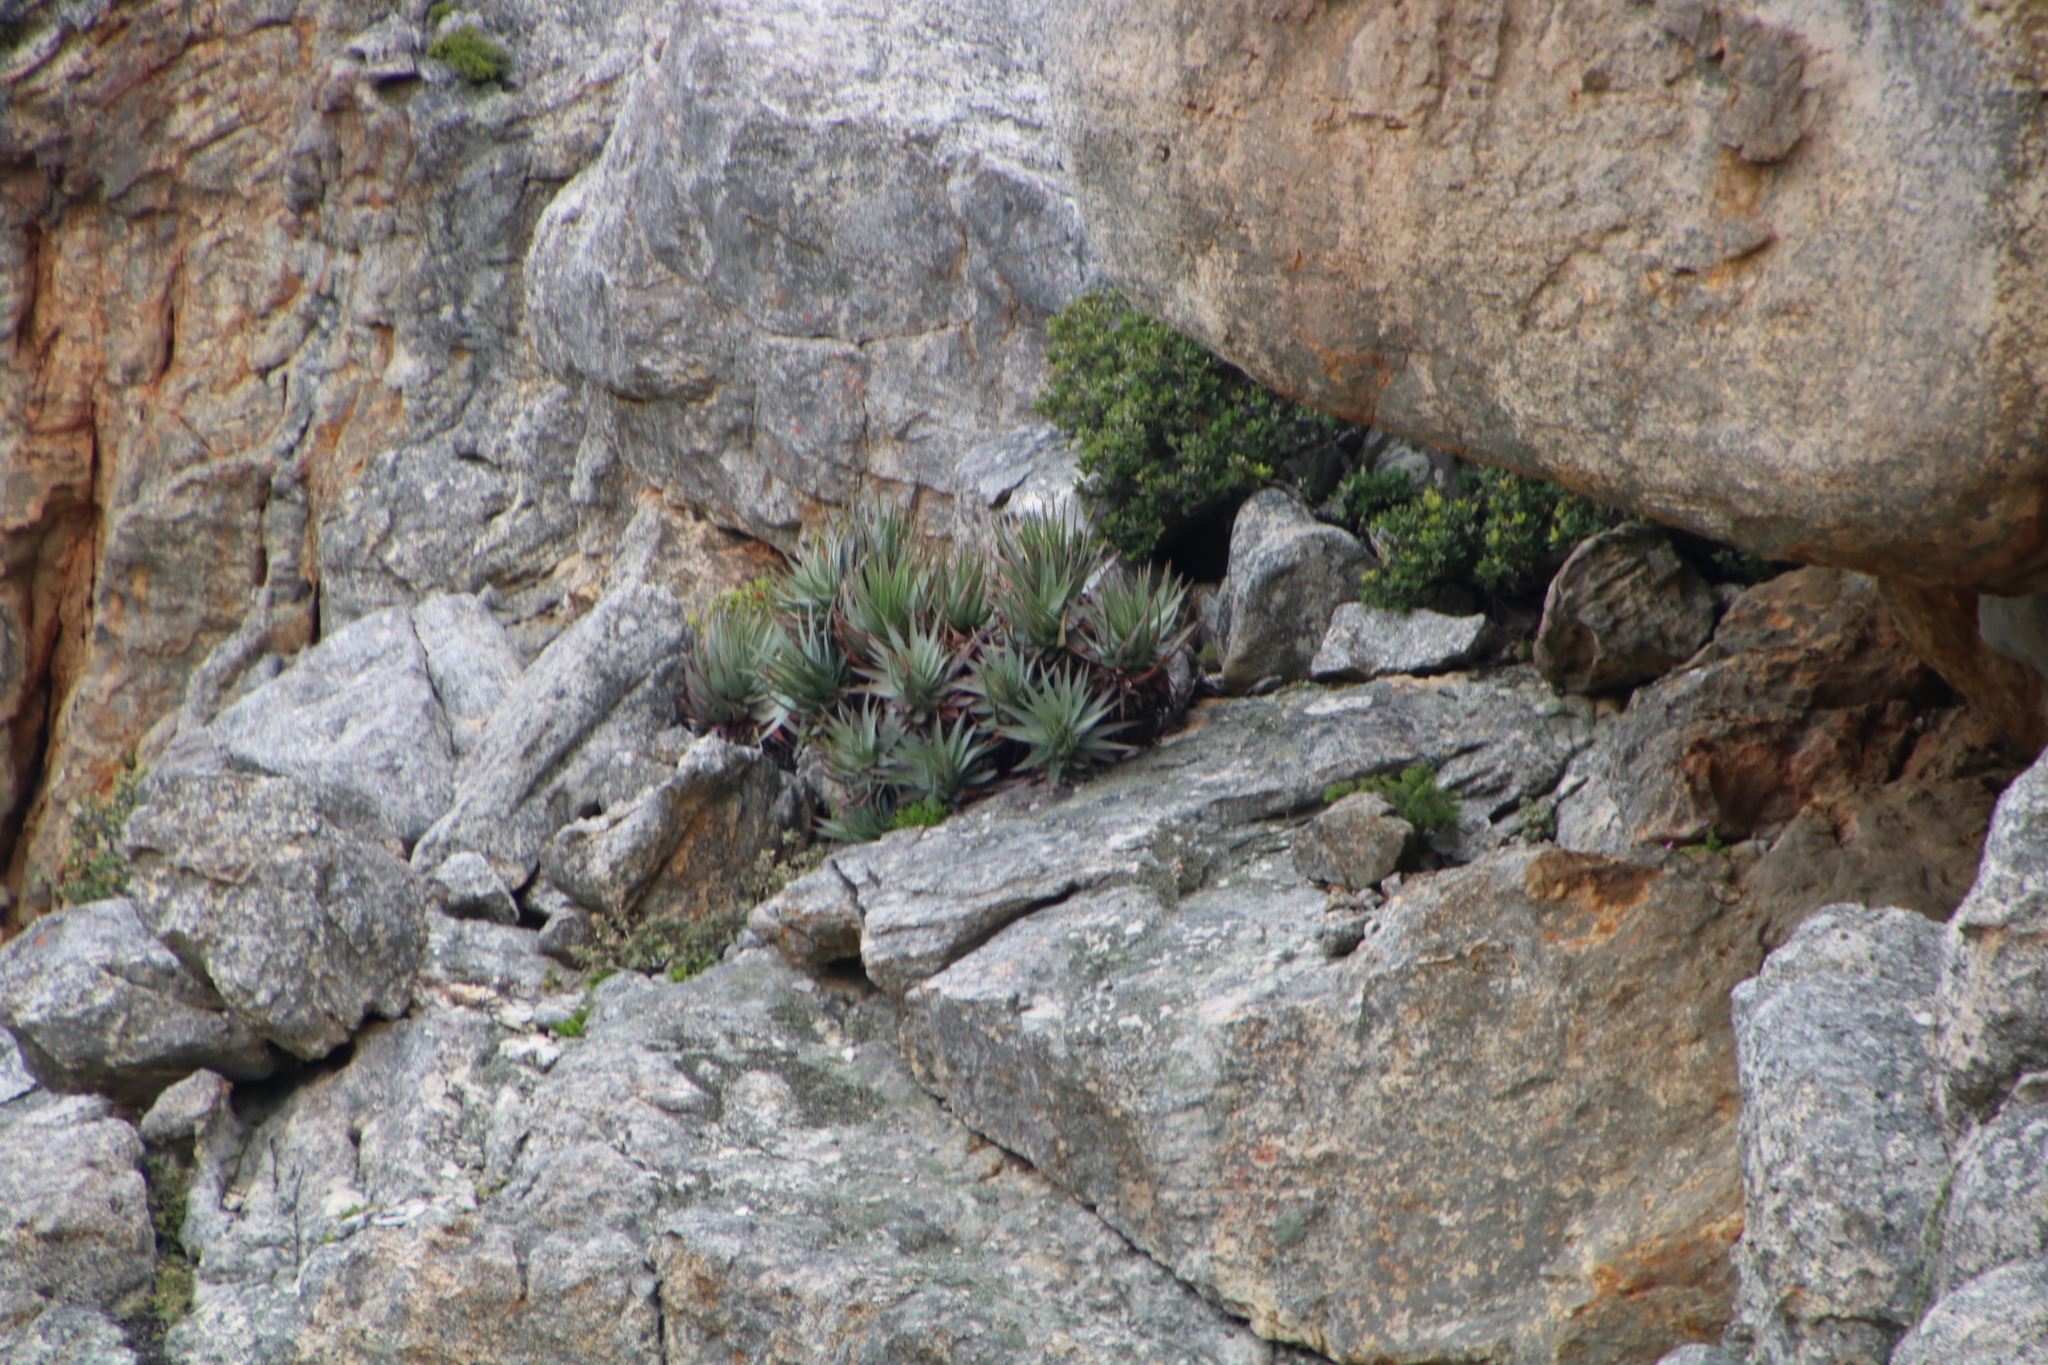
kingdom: Plantae
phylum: Tracheophyta
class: Liliopsida
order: Asparagales
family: Asphodelaceae
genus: Aloe
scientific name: Aloe succotrina
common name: Bombay aloe
